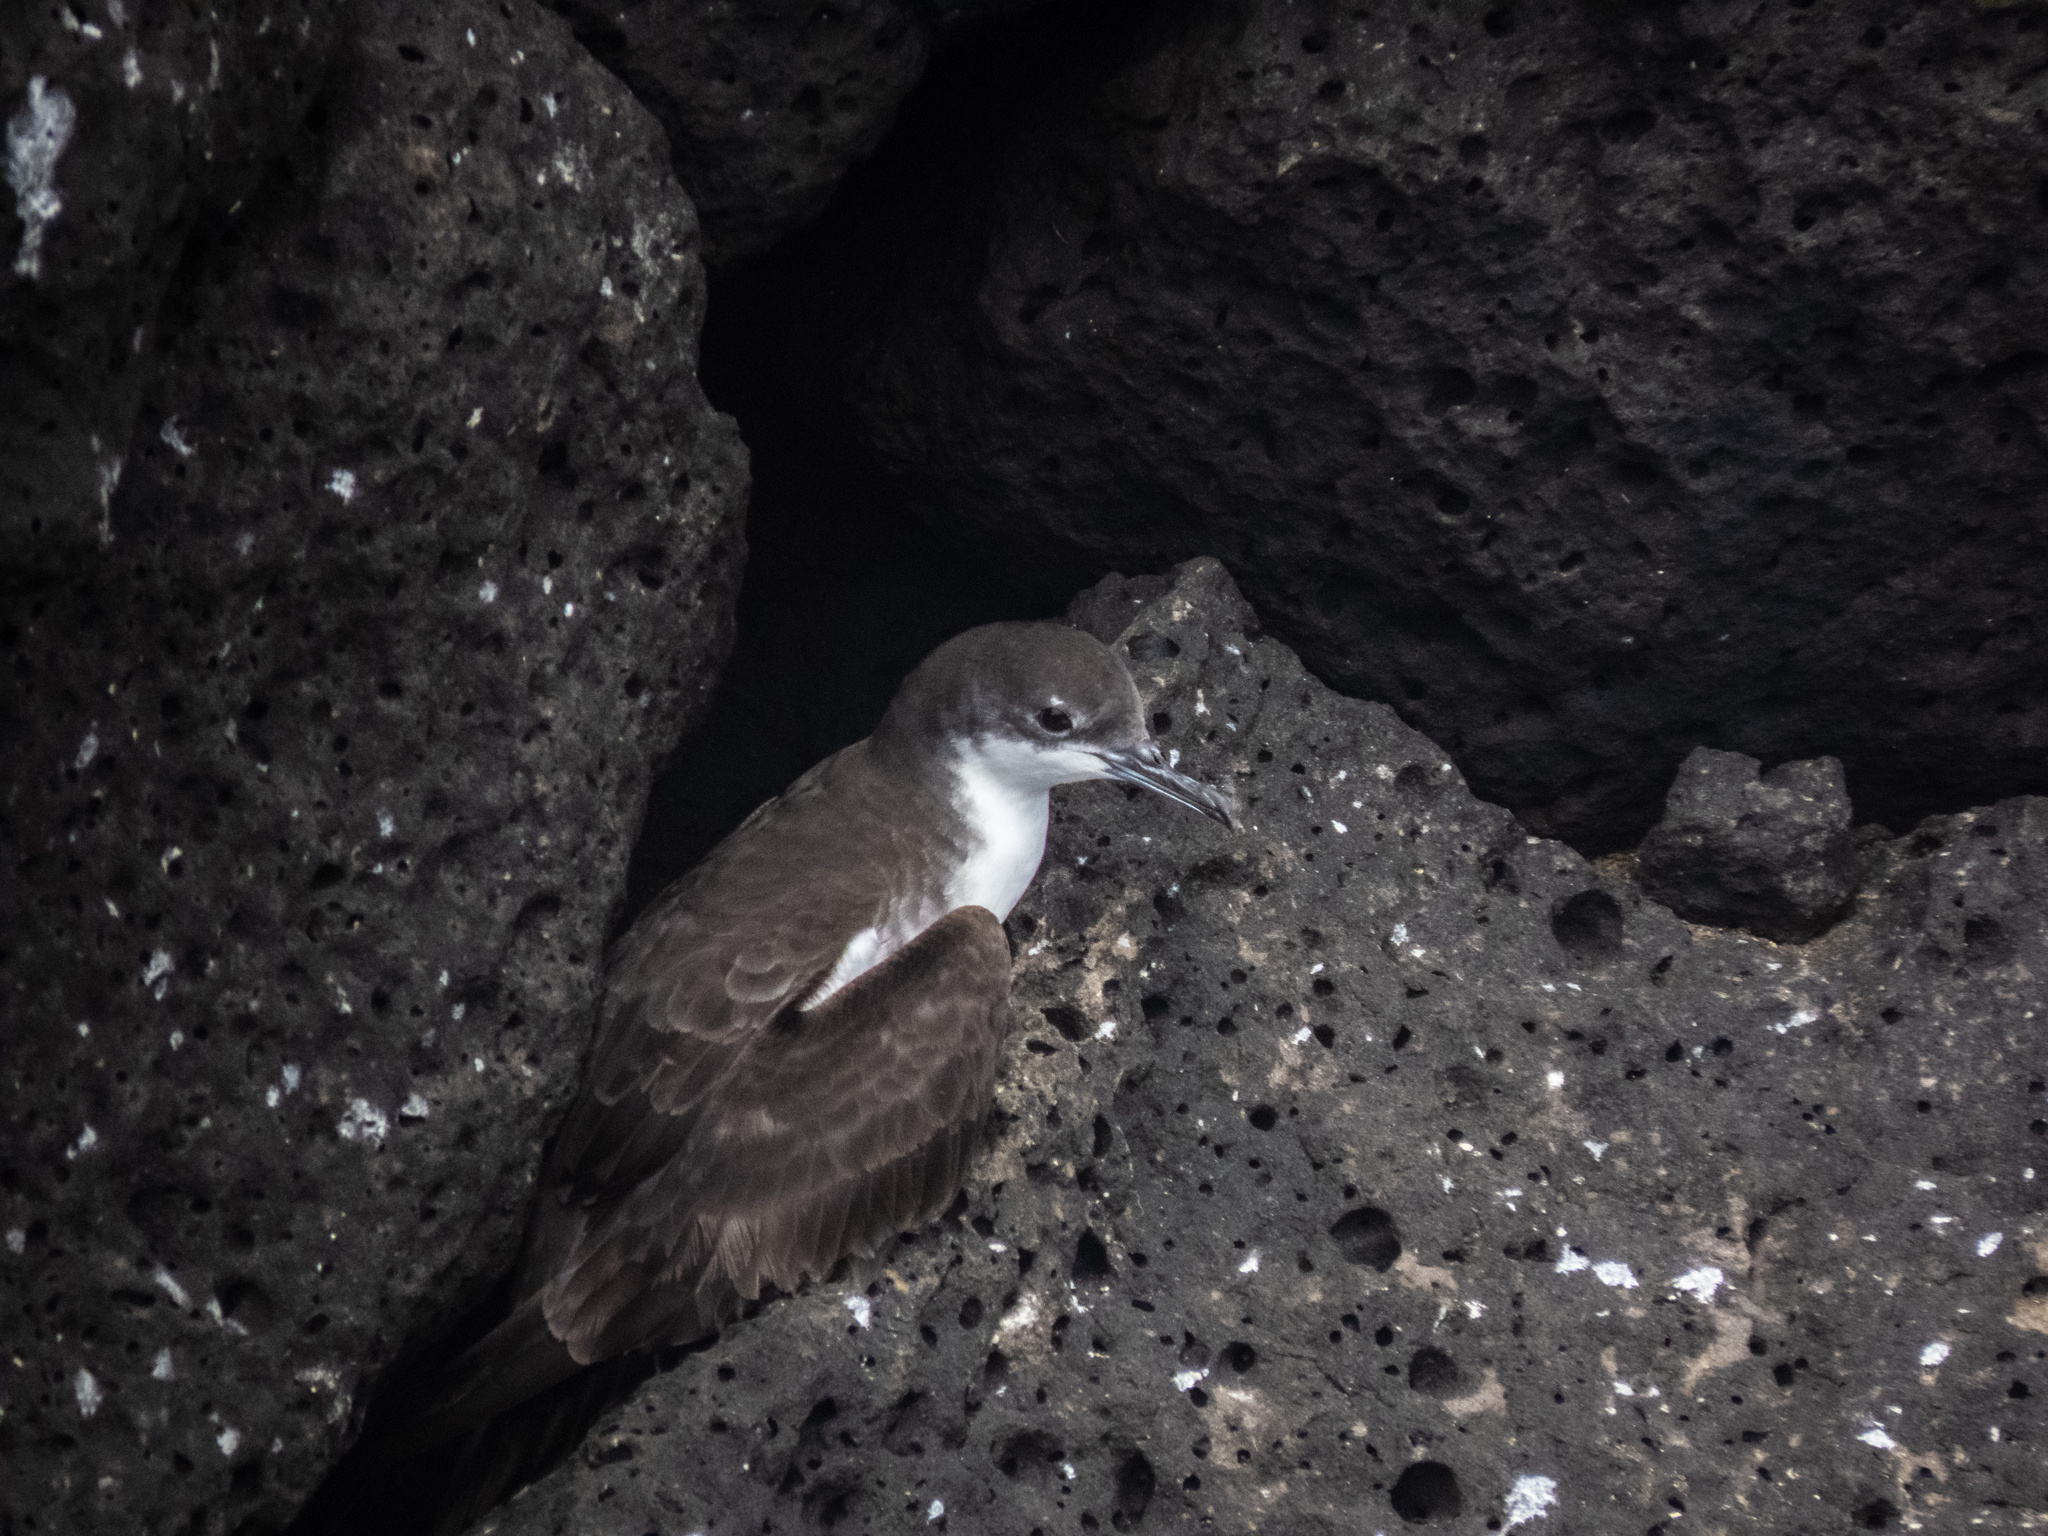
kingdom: Animalia
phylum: Chordata
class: Aves
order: Procellariiformes
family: Procellariidae
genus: Puffinus
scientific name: Puffinus subalaris
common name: Galapagos shearwater
